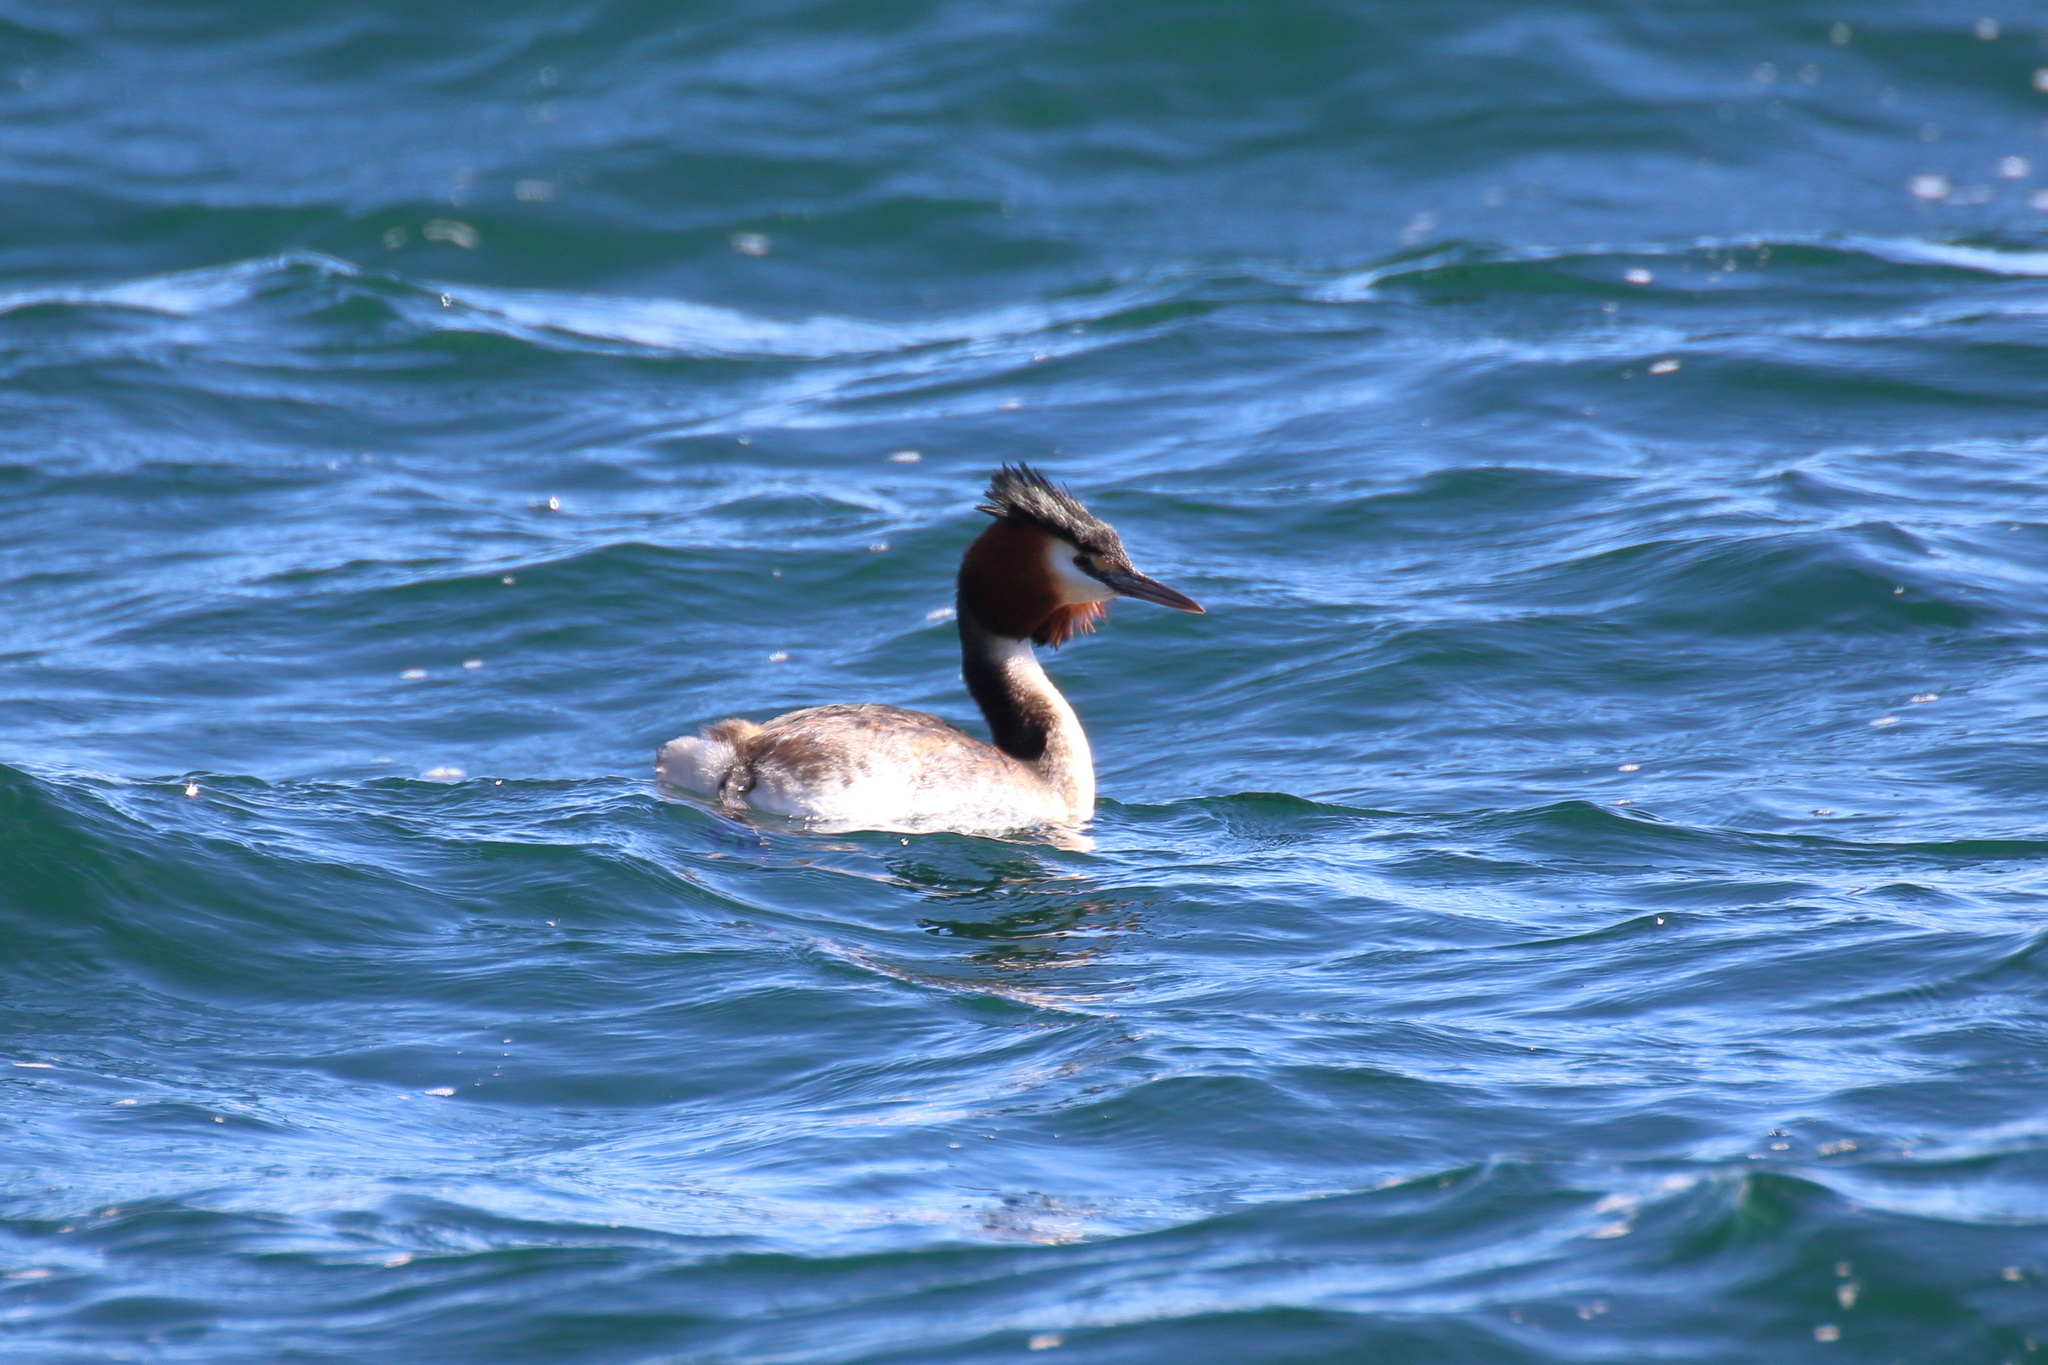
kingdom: Animalia
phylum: Chordata
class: Aves
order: Podicipediformes
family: Podicipedidae
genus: Podiceps
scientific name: Podiceps cristatus
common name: Great crested grebe
